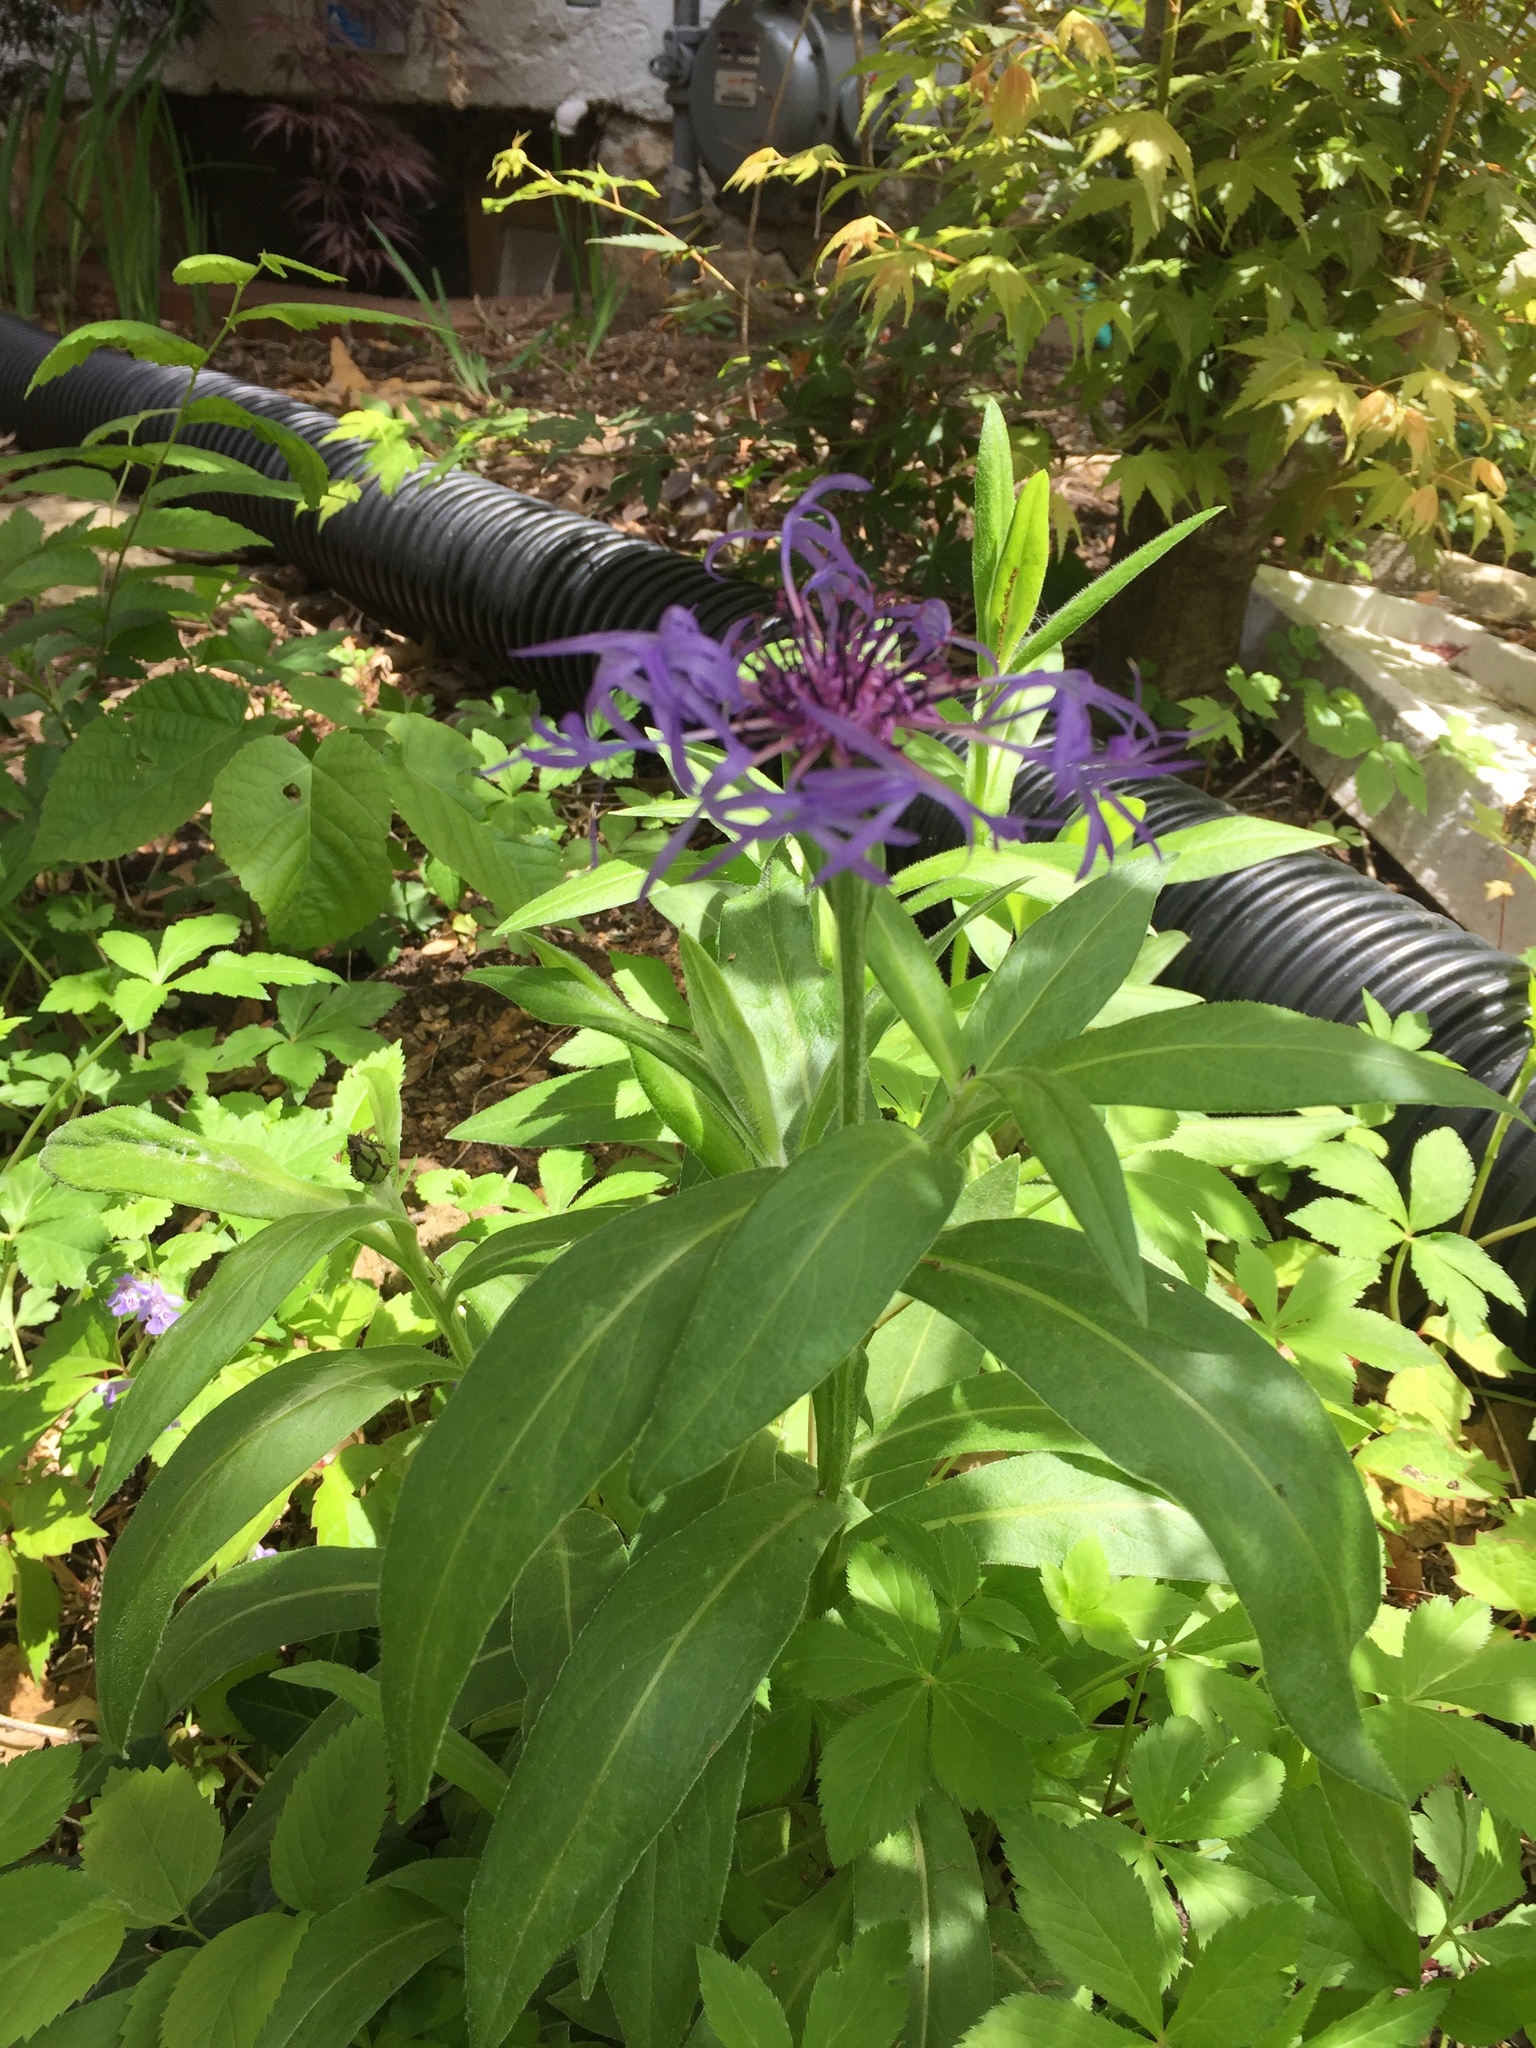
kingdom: Plantae
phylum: Tracheophyta
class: Magnoliopsida
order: Asterales
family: Asteraceae
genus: Centaurea
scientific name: Centaurea montana
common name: Perennial cornflower
